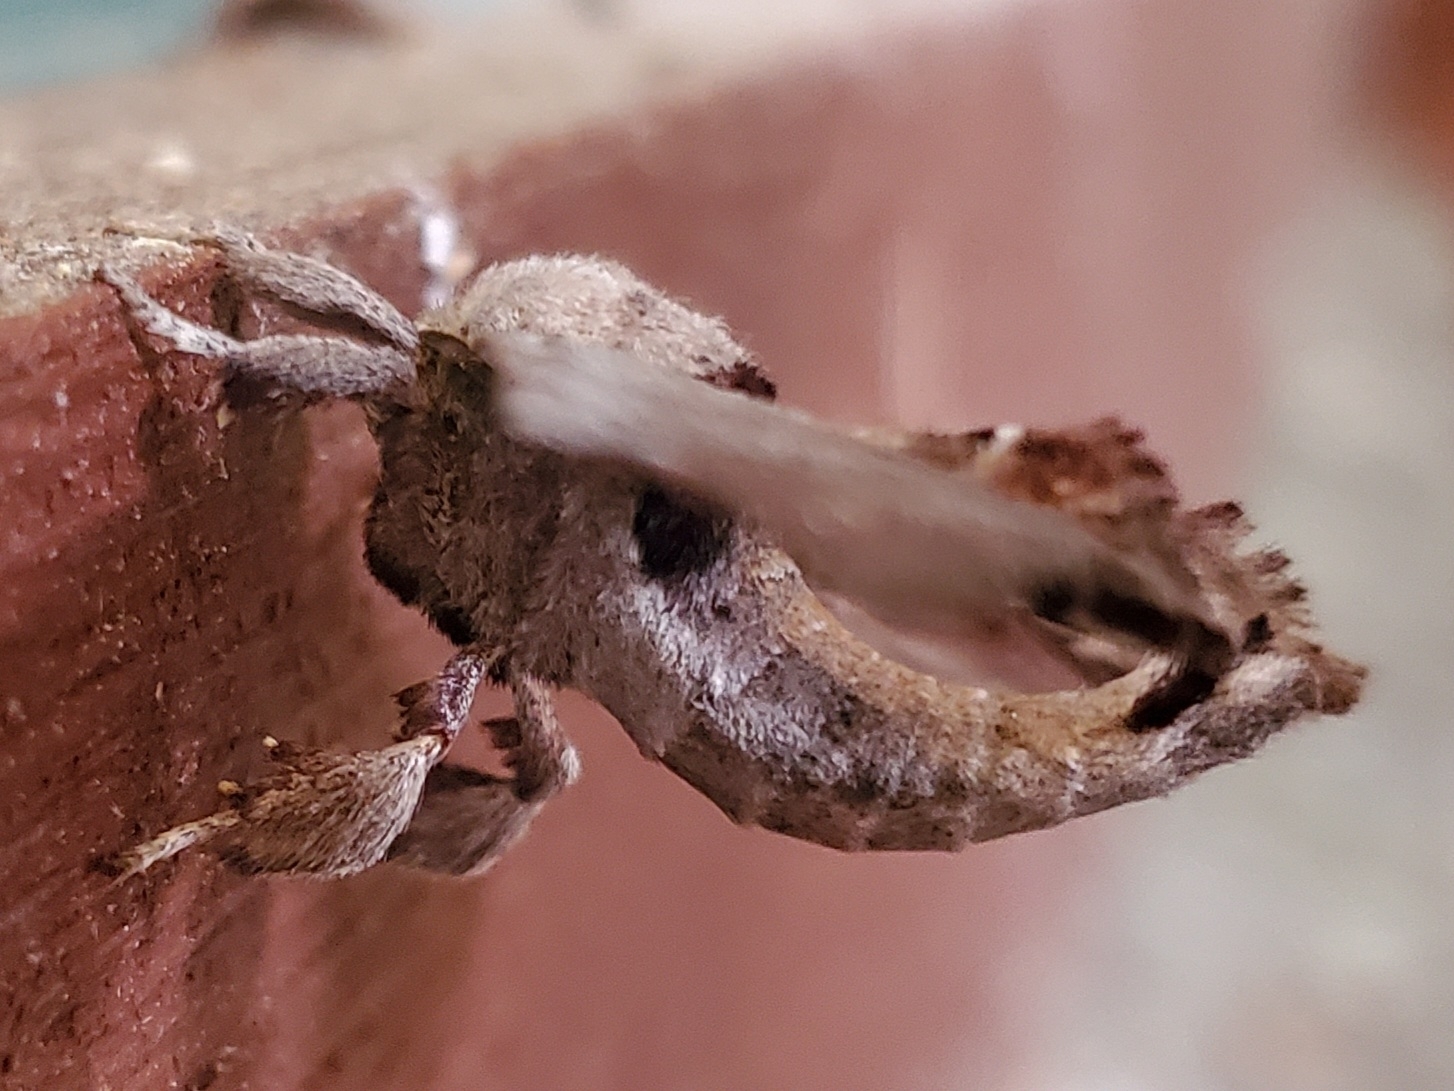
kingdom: Animalia
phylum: Arthropoda
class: Insecta
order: Lepidoptera
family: Apatelodidae
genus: Hygrochroa
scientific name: Hygrochroa Apatelodes torrefacta
